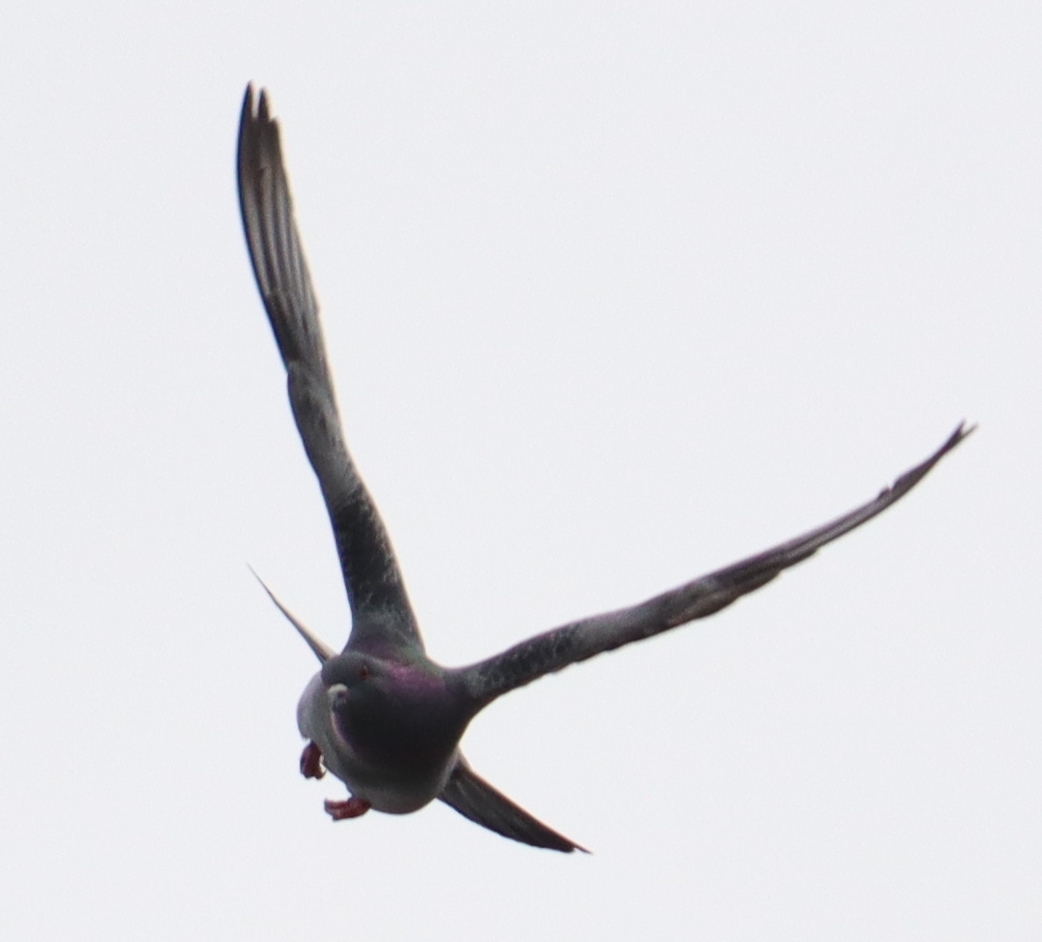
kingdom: Animalia
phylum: Chordata
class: Aves
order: Columbiformes
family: Columbidae
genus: Columba
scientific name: Columba livia
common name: Rock pigeon
